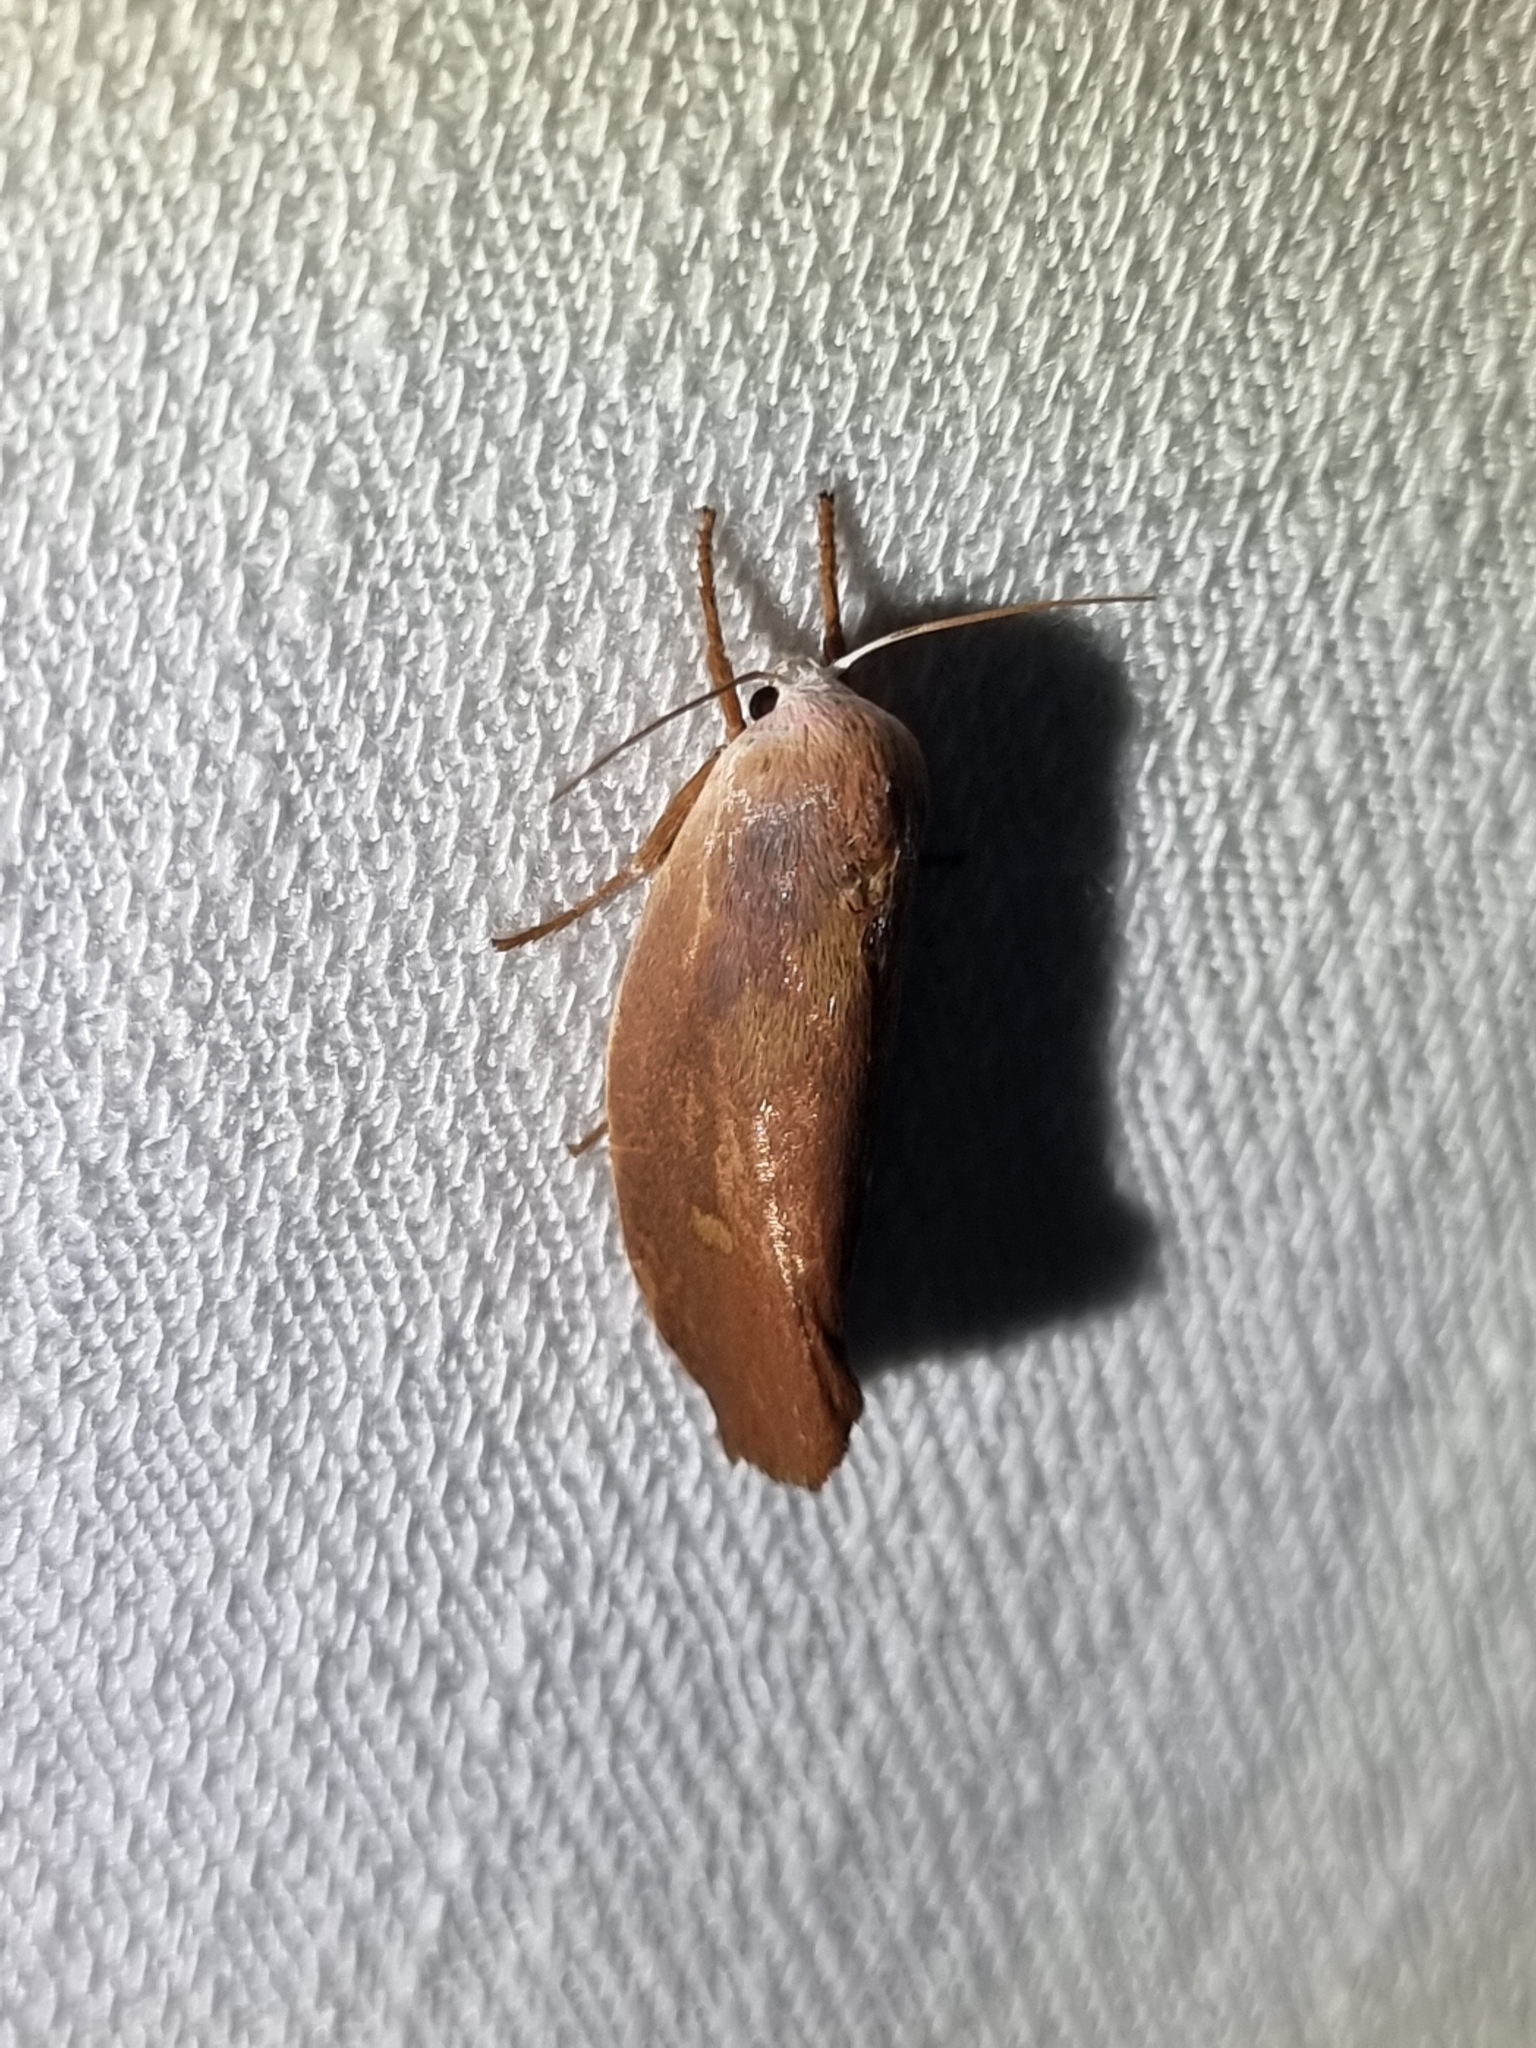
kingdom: Animalia
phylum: Arthropoda
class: Insecta
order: Lepidoptera
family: Xyloryctidae
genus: Cryptophasa
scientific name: Cryptophasa rubescens
